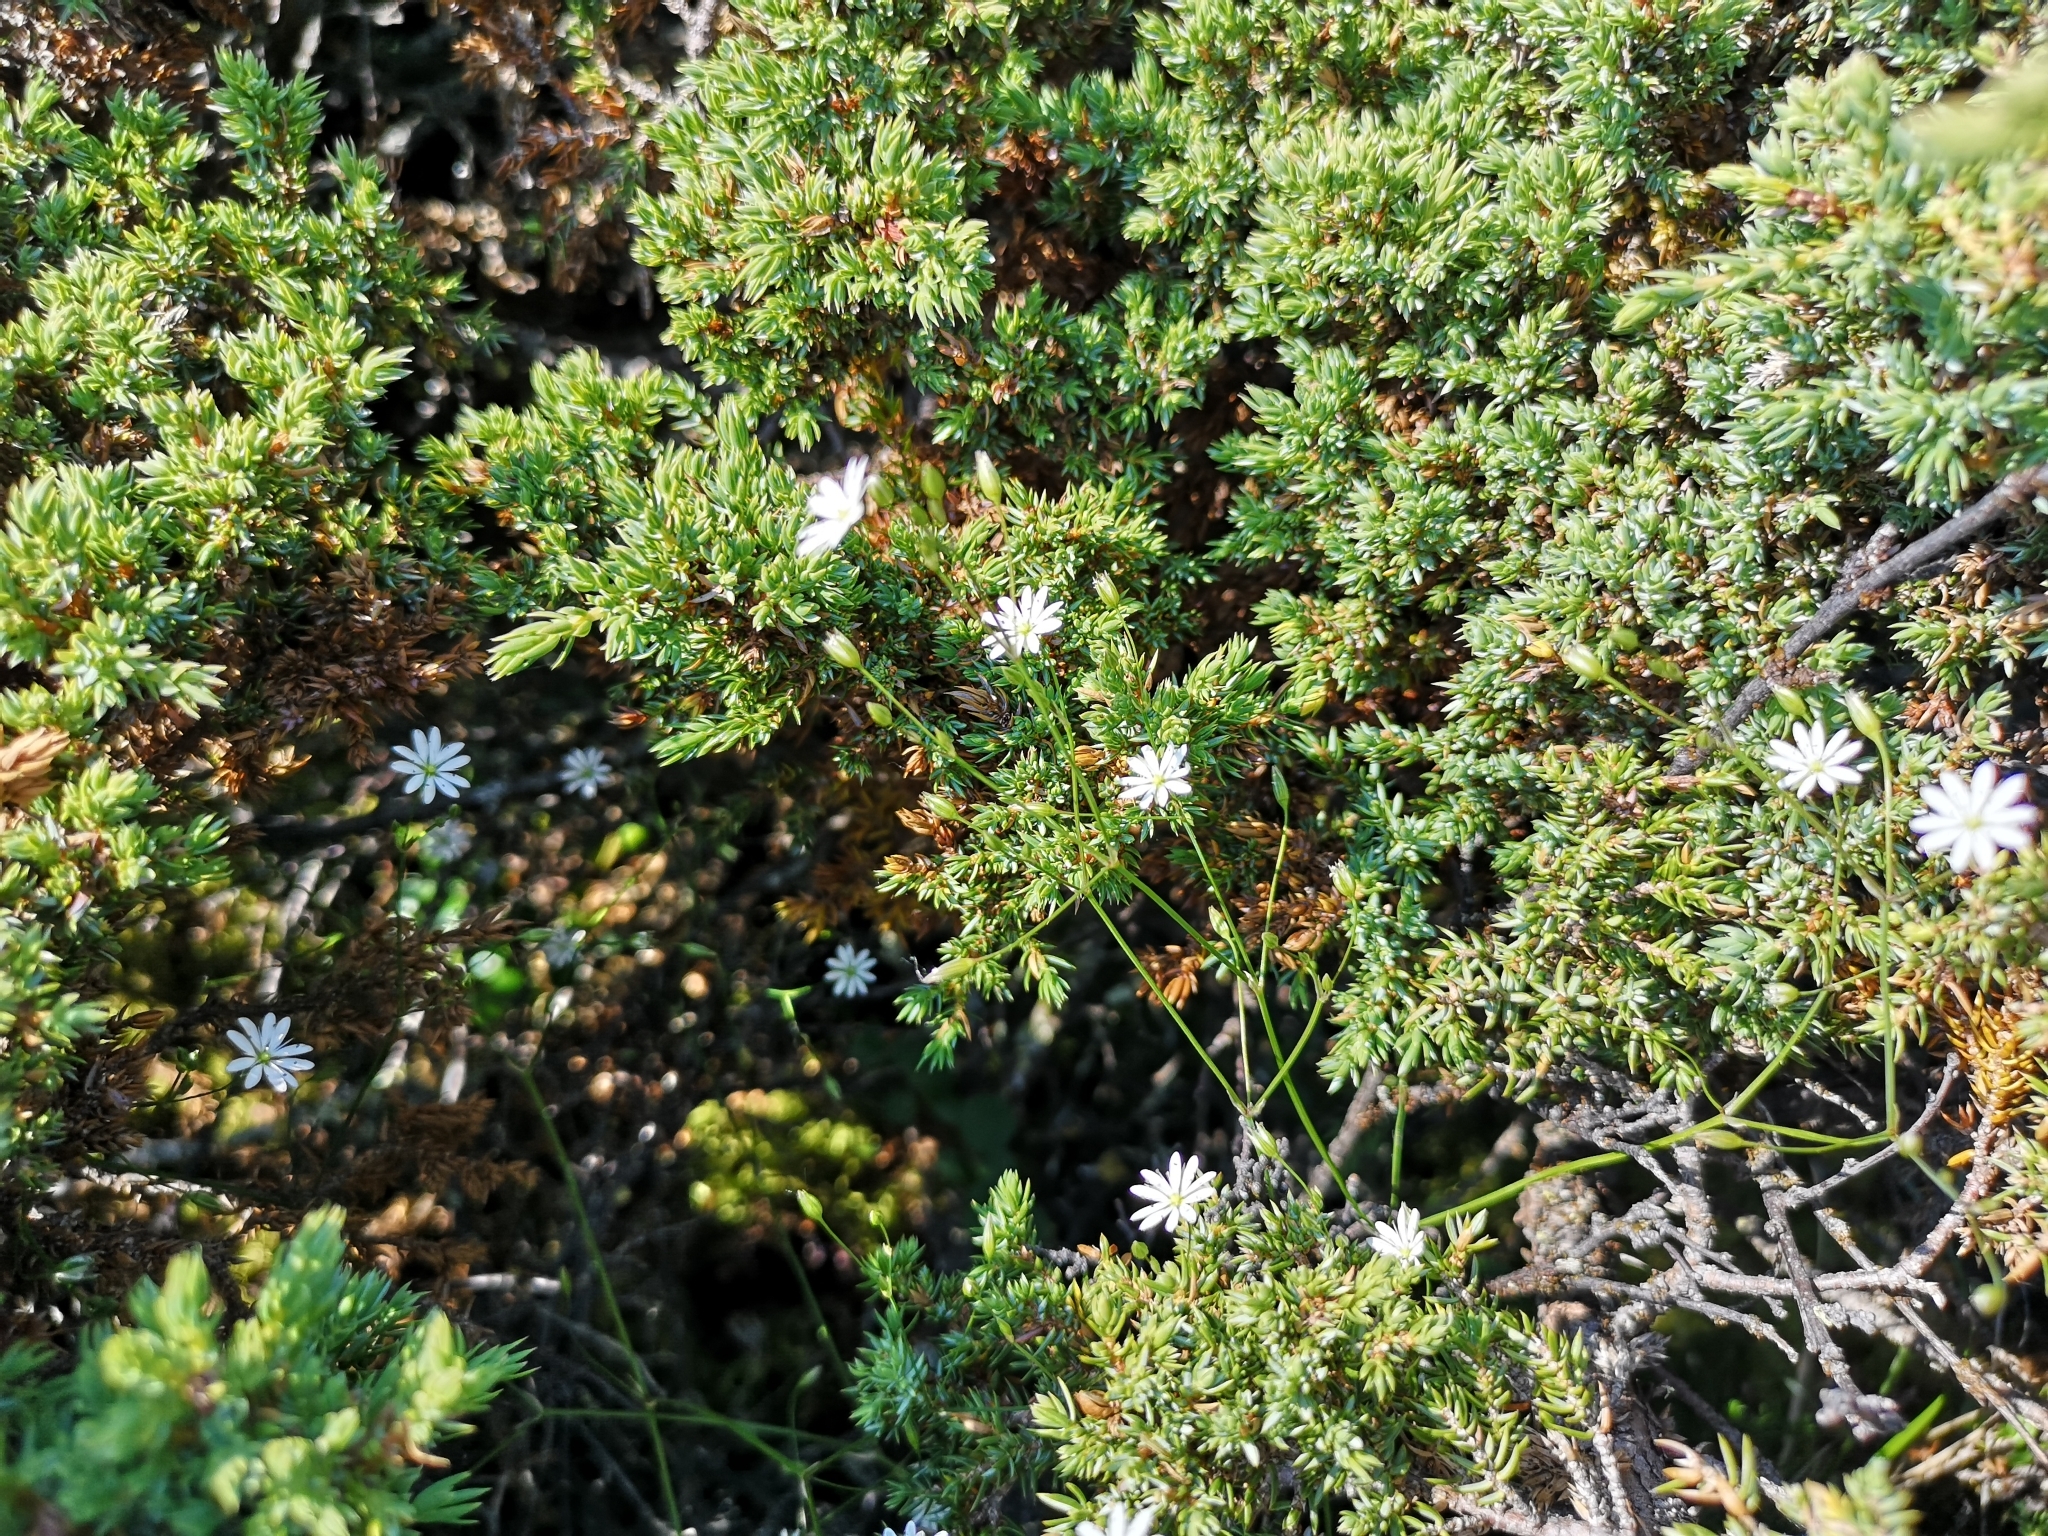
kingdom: Plantae
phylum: Tracheophyta
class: Magnoliopsida
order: Caryophyllales
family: Caryophyllaceae
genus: Stellaria
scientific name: Stellaria graminea
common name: Grass-like starwort
